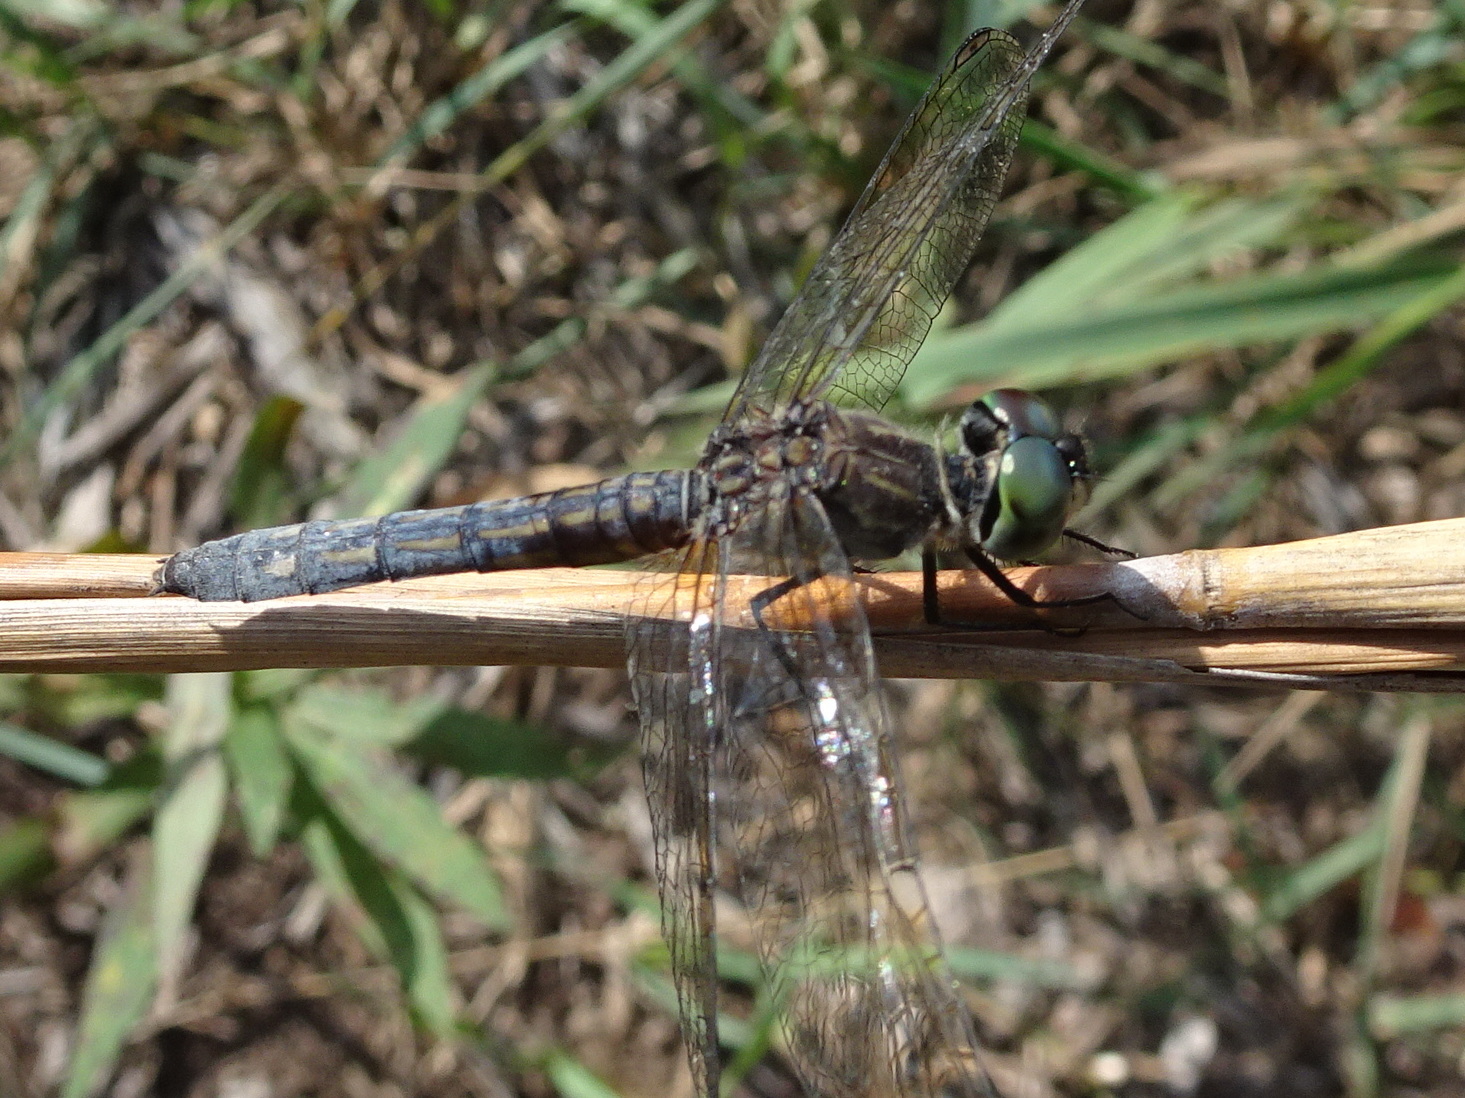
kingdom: Animalia
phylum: Arthropoda
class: Insecta
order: Odonata
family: Libellulidae
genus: Pachydiplax
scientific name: Pachydiplax longipennis
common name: Blue dasher
